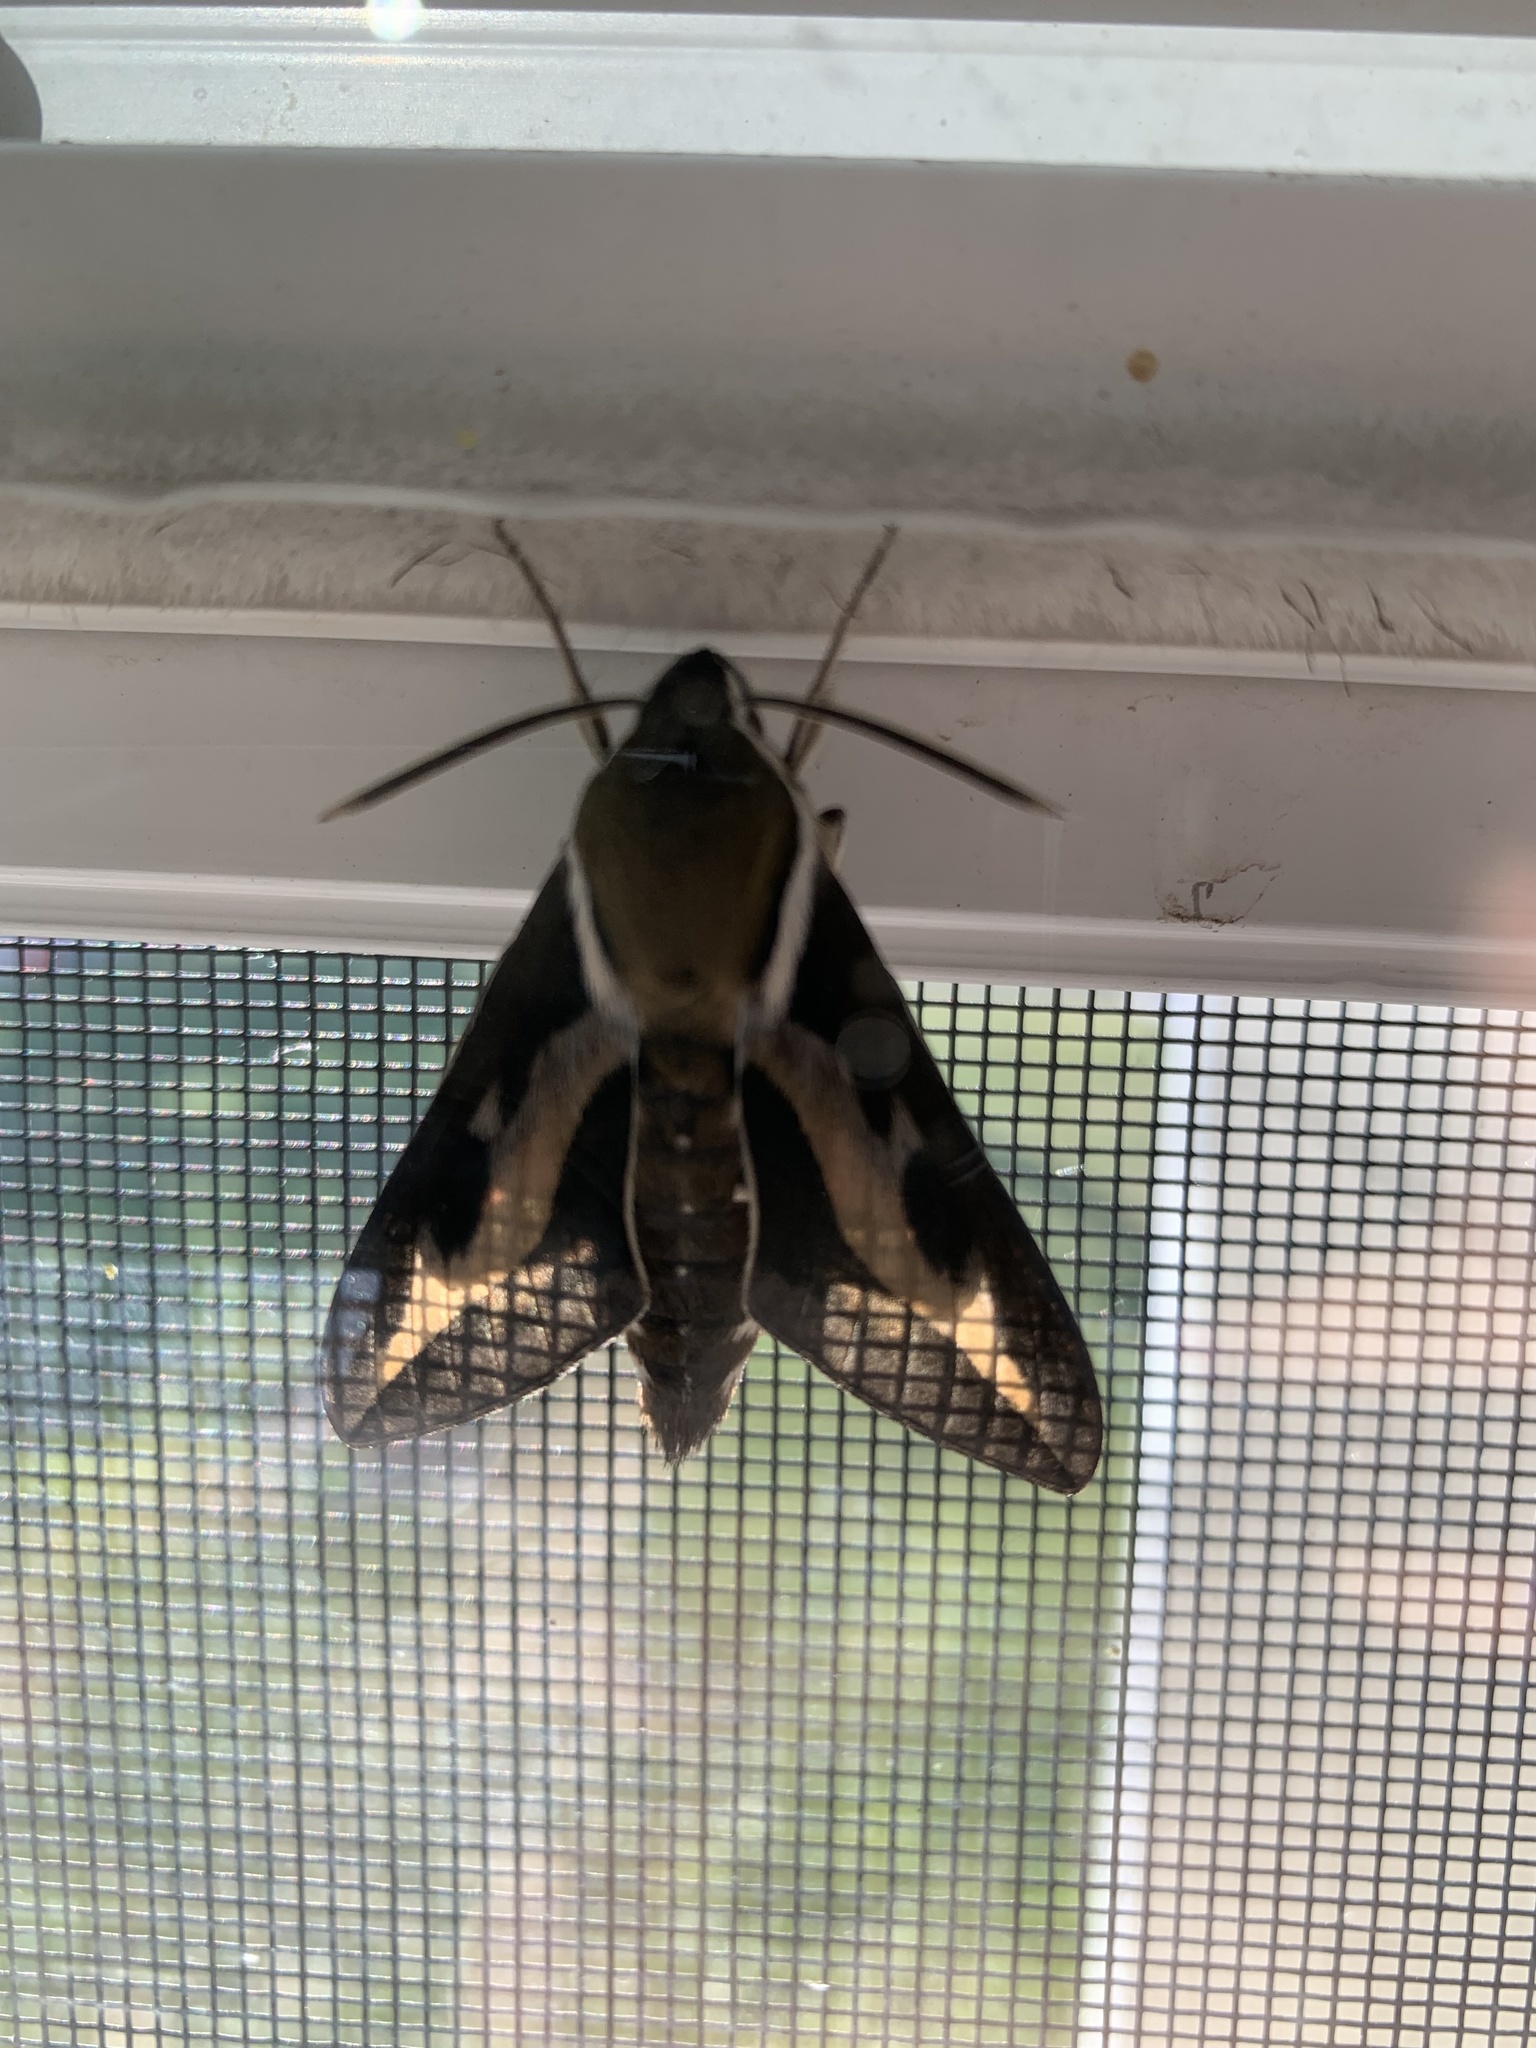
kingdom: Animalia
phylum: Arthropoda
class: Insecta
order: Lepidoptera
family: Sphingidae
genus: Hyles
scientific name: Hyles gallii
